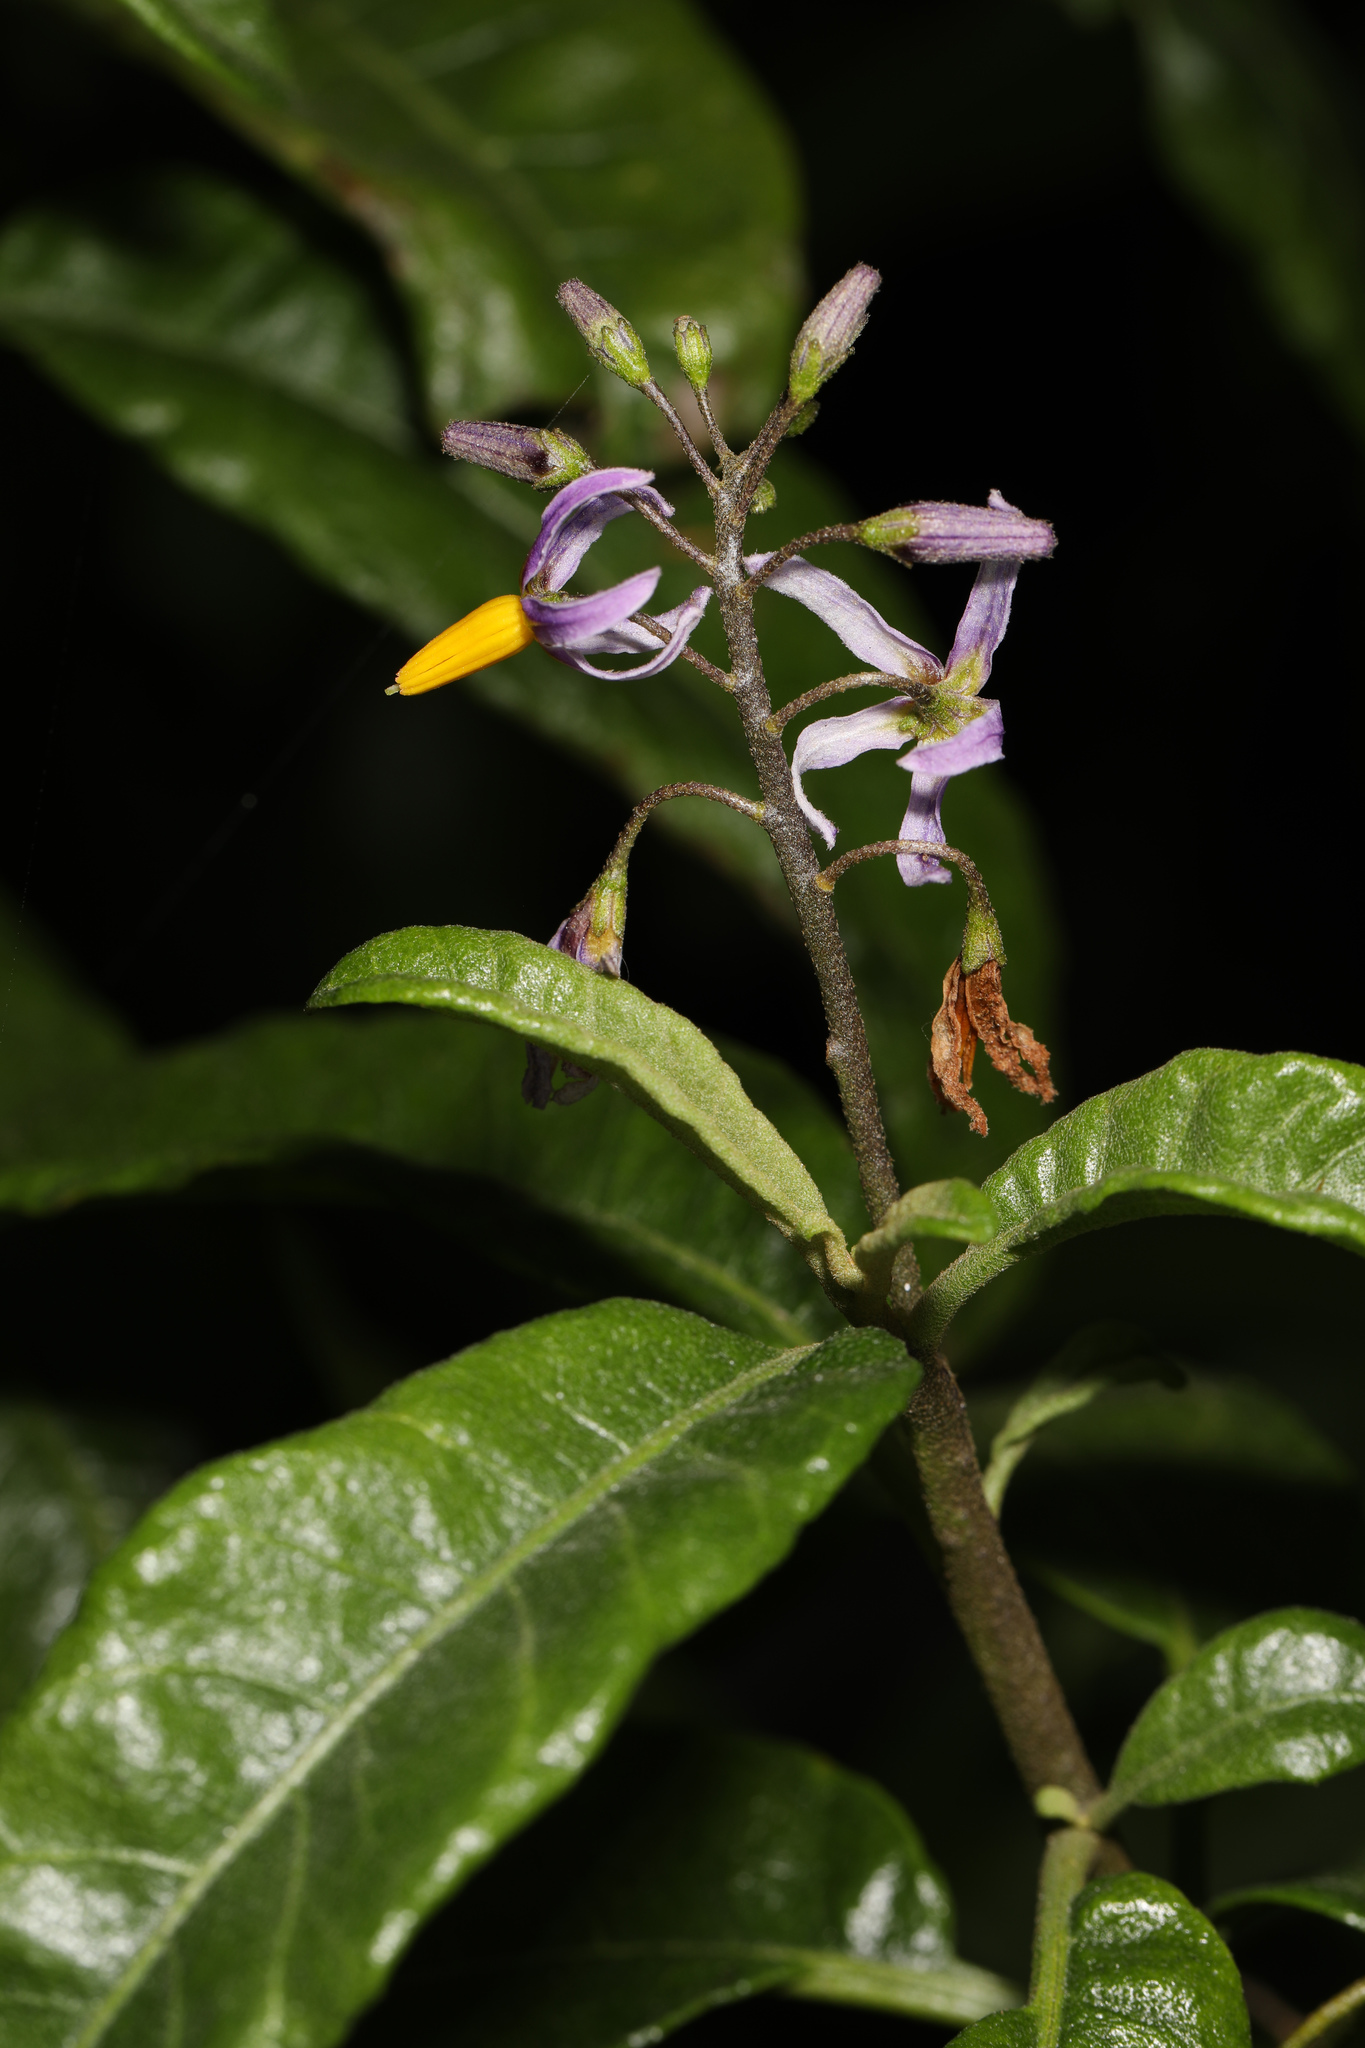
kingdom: Plantae
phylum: Tracheophyta
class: Magnoliopsida
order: Solanales
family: Solanaceae
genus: Solanum
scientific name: Solanum bahamense
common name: Canker-berry
